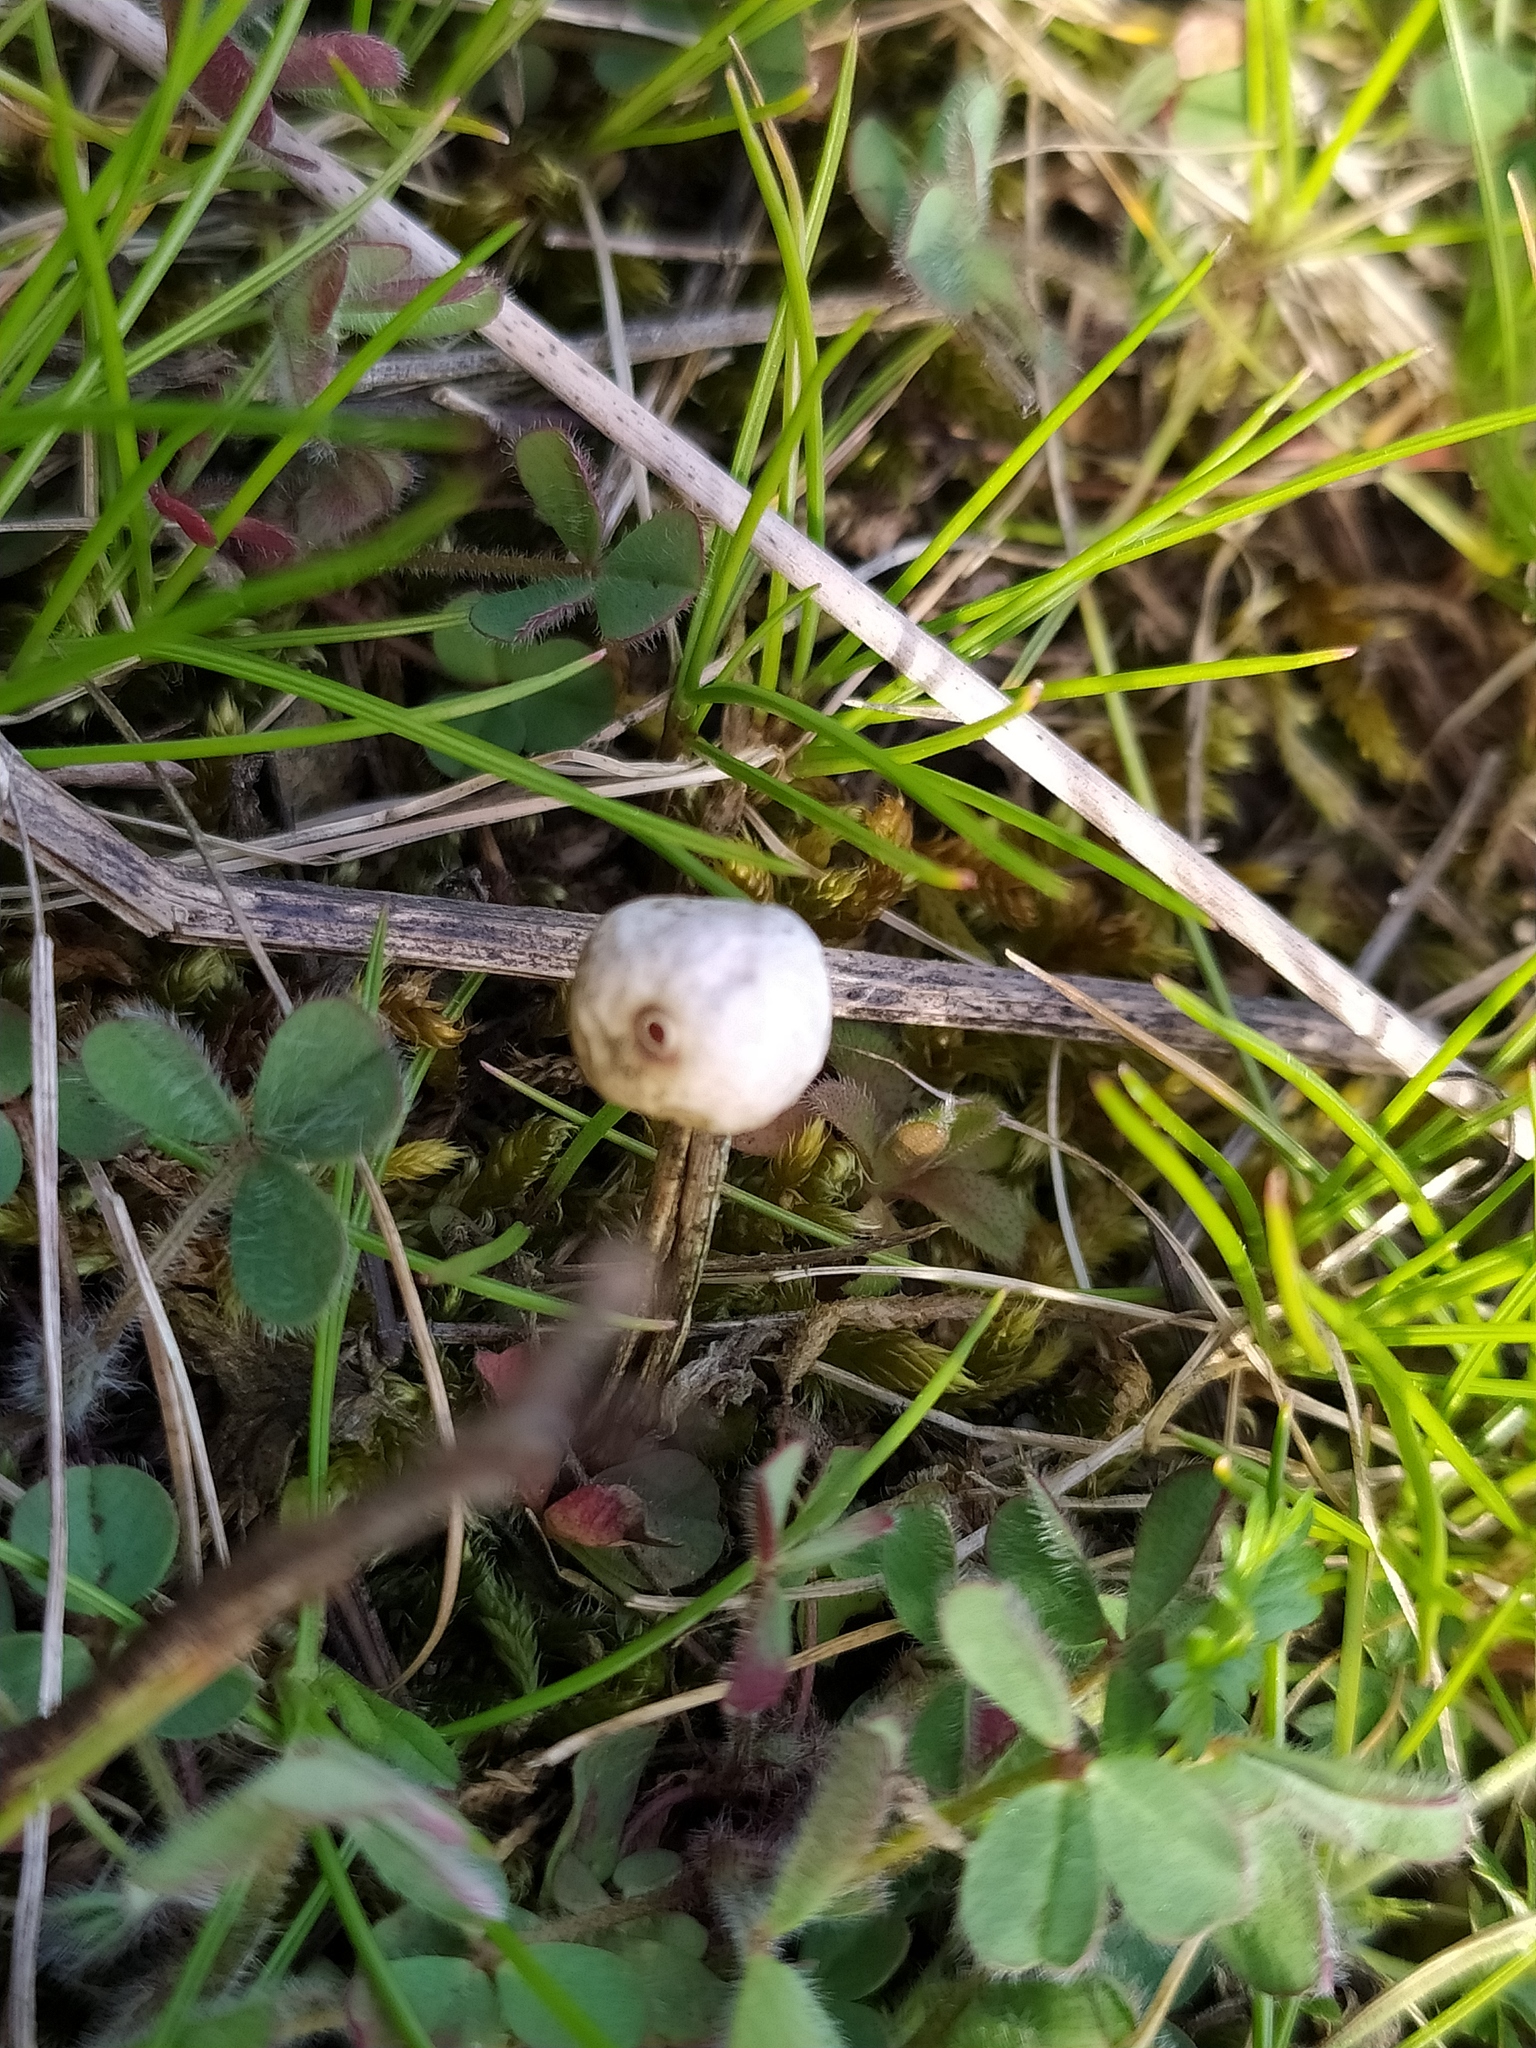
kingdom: Fungi
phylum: Basidiomycota
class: Agaricomycetes
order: Agaricales
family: Agaricaceae
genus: Tulostoma
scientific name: Tulostoma brumale
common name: Winter stalk puffball
